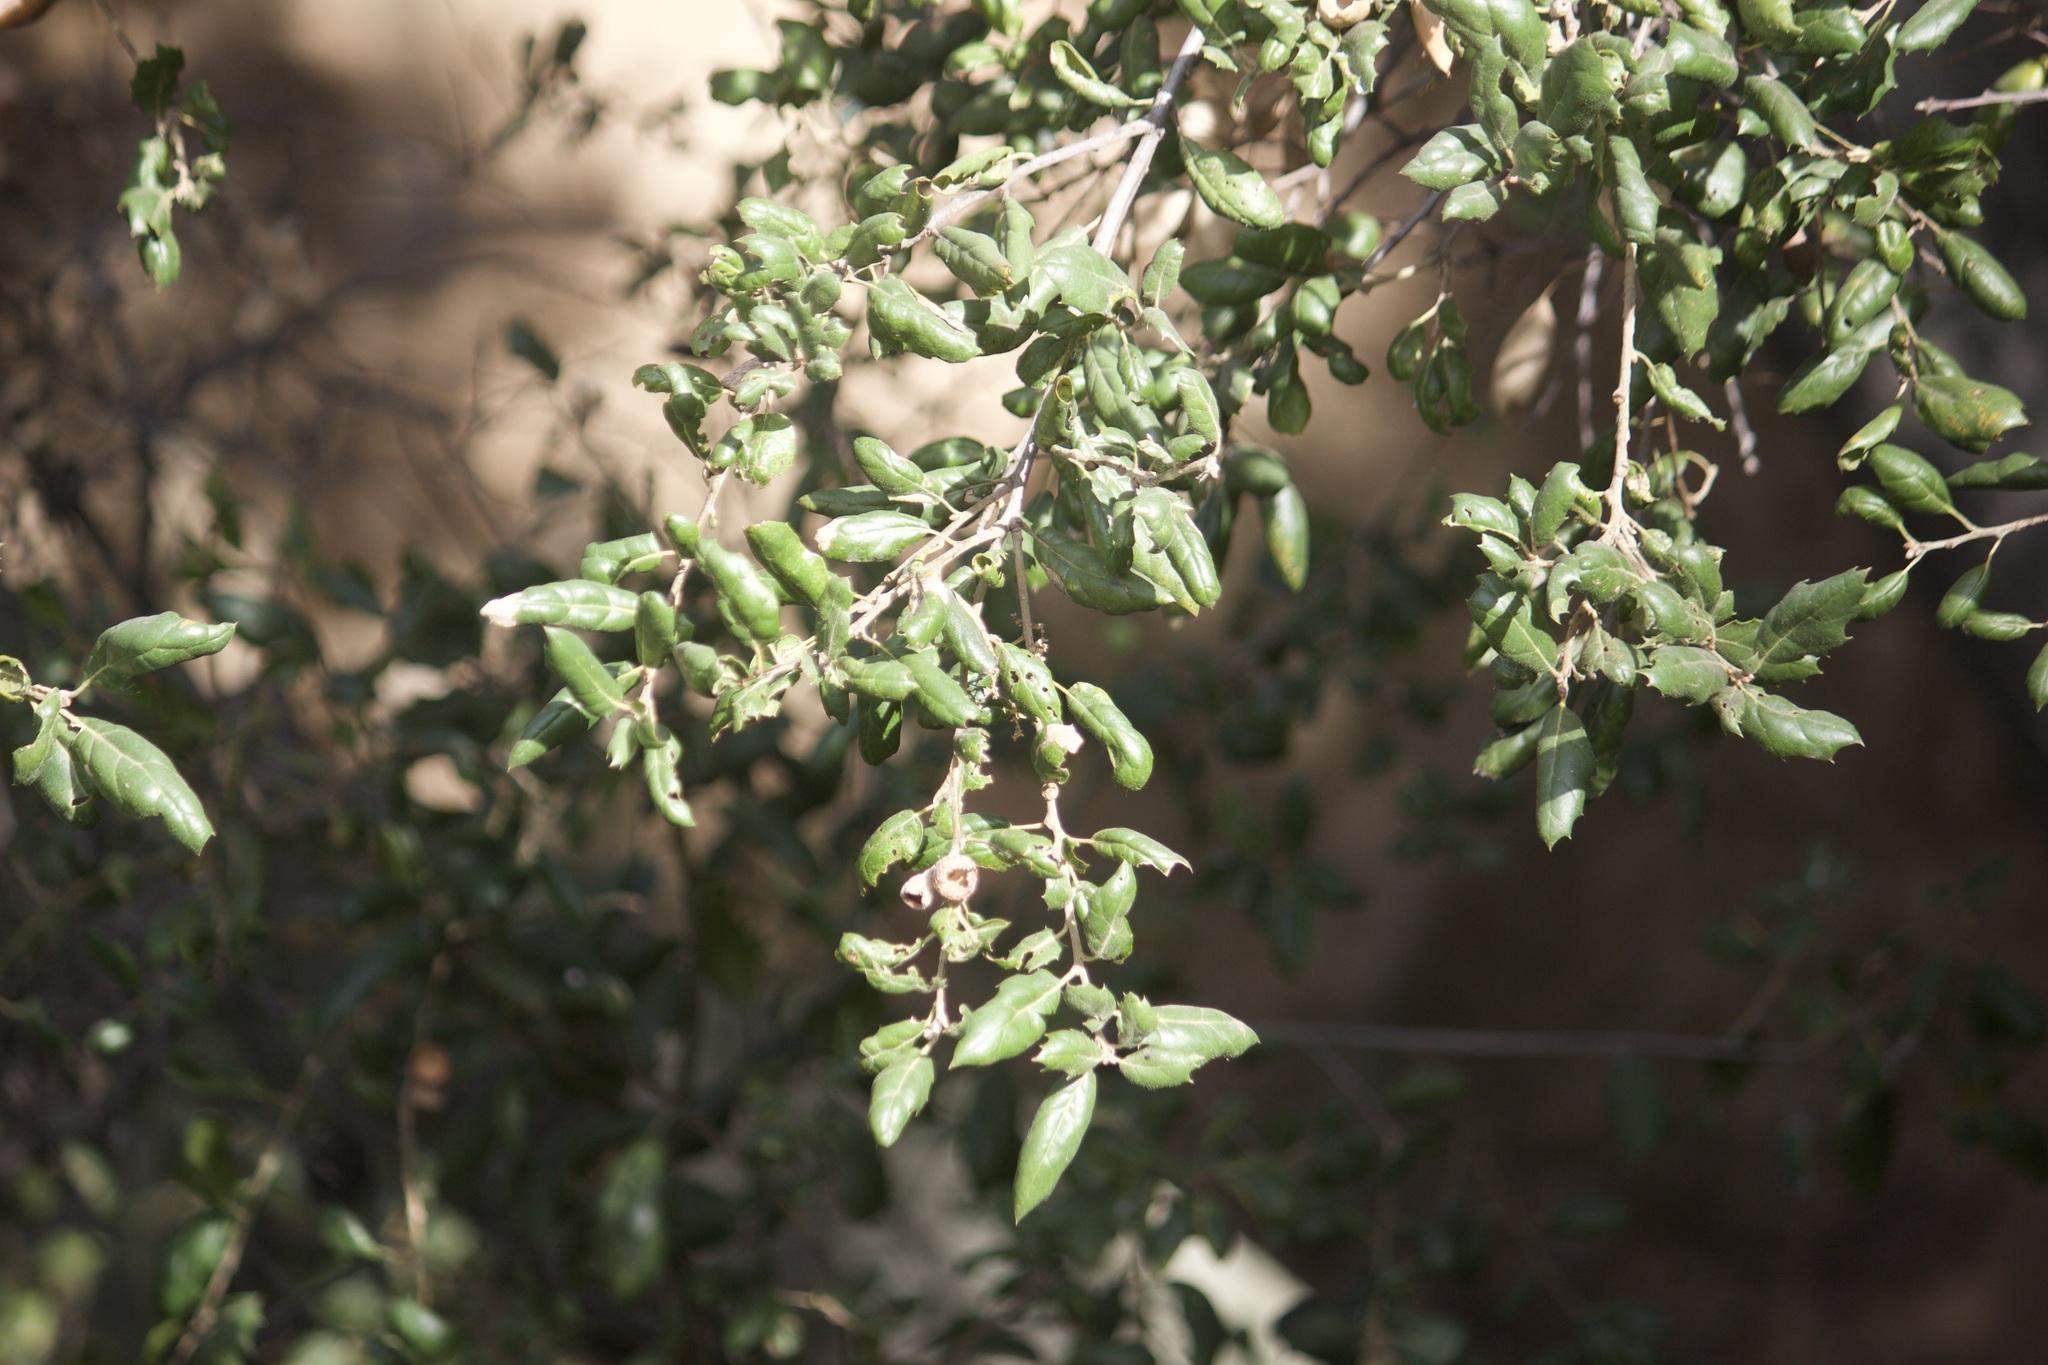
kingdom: Plantae
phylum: Tracheophyta
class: Magnoliopsida
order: Fagales
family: Fagaceae
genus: Quercus
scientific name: Quercus agrifolia
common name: California live oak
